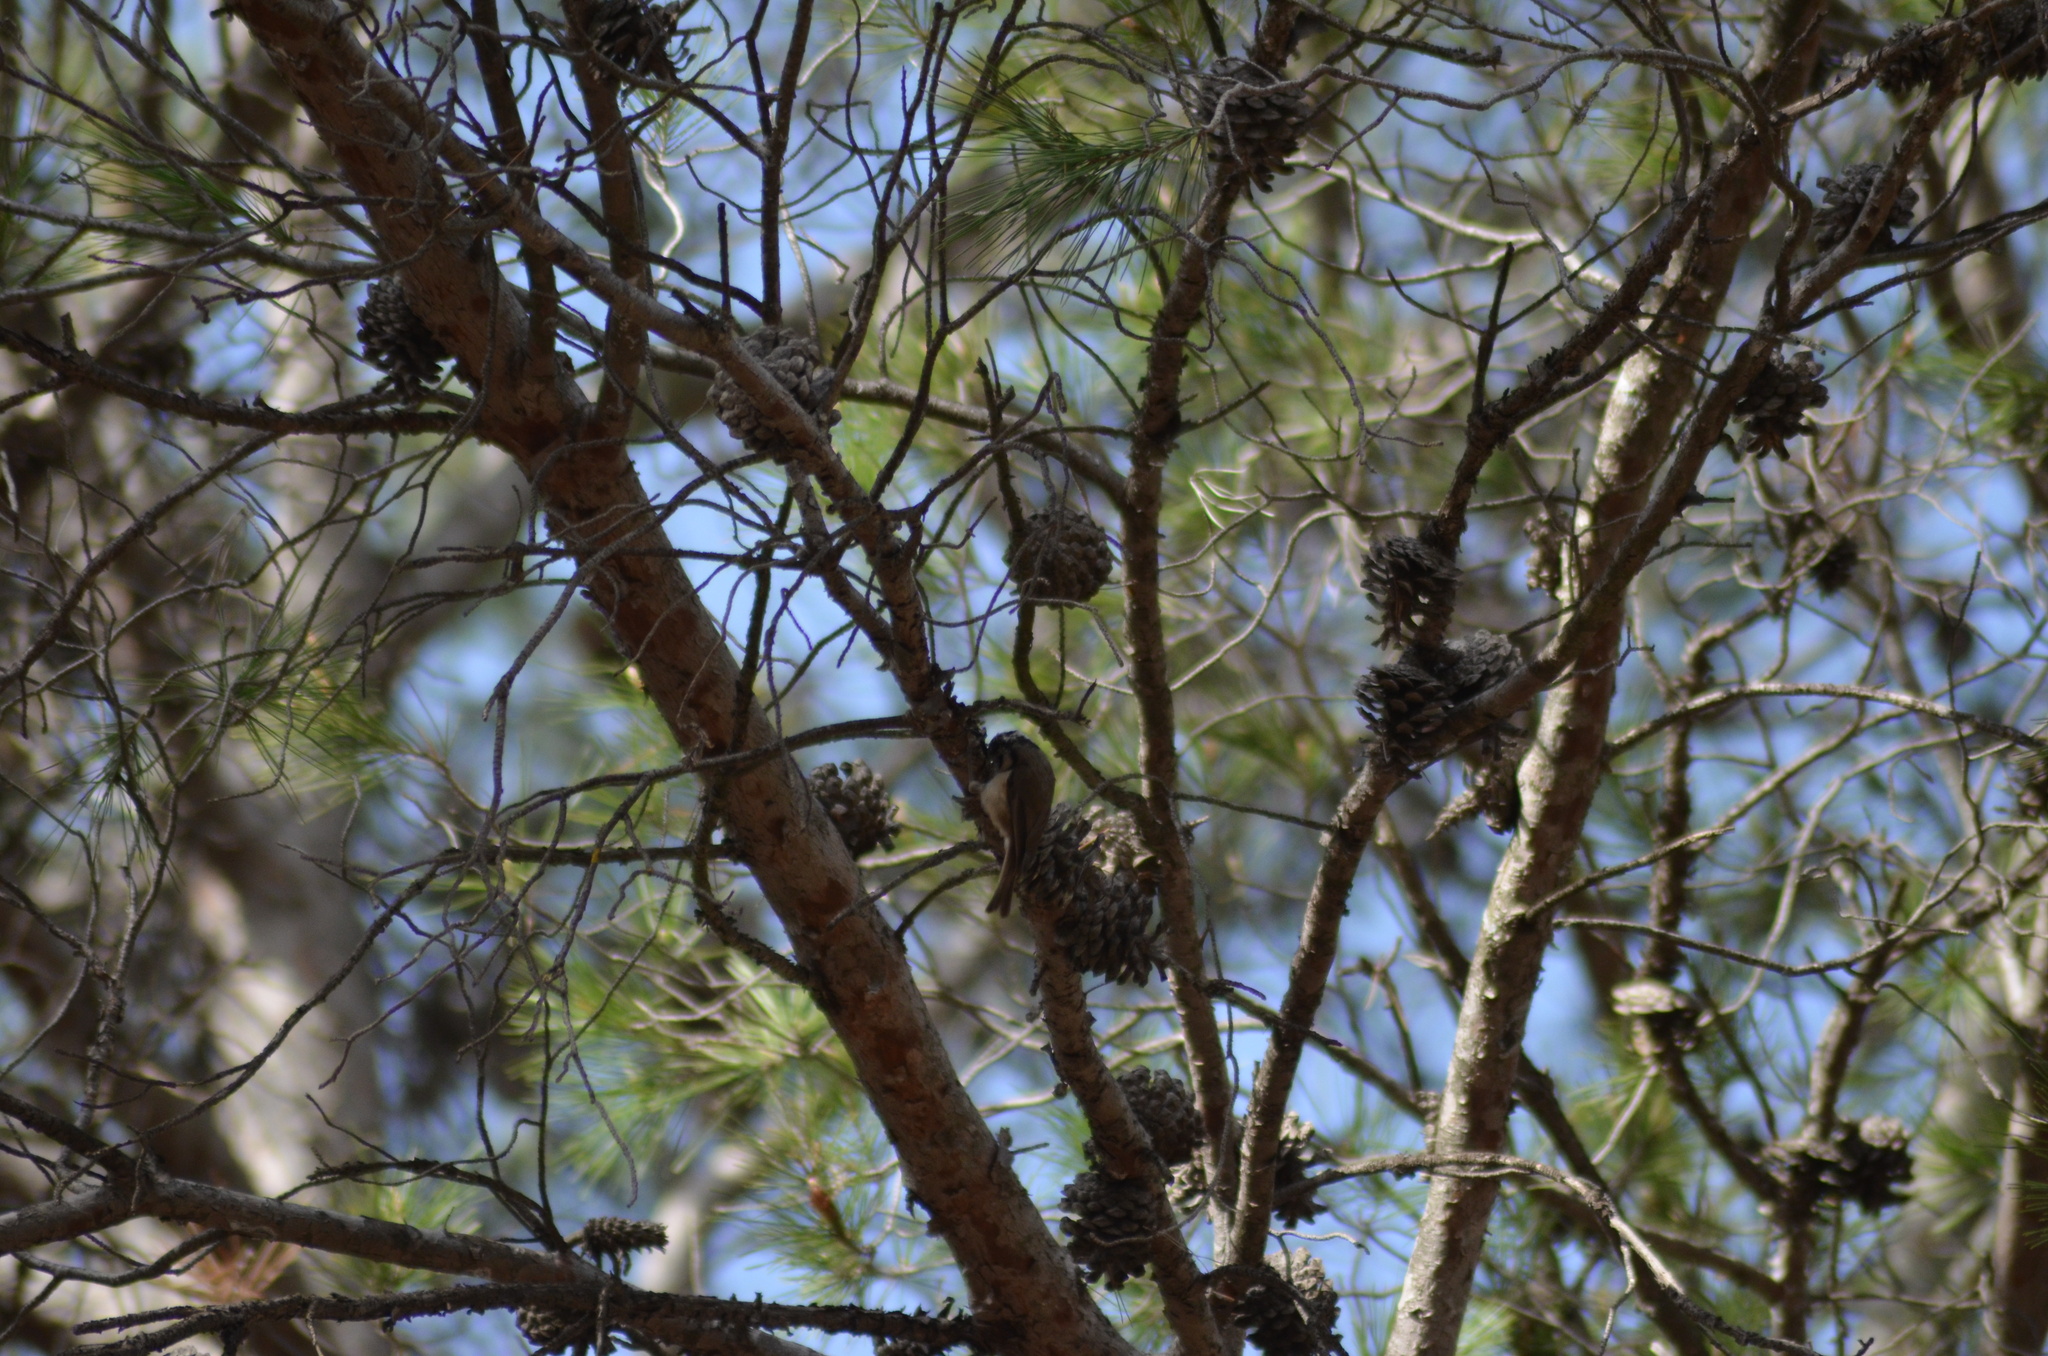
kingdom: Animalia
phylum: Chordata
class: Aves
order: Passeriformes
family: Paridae
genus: Lophophanes
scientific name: Lophophanes cristatus
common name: European crested tit
